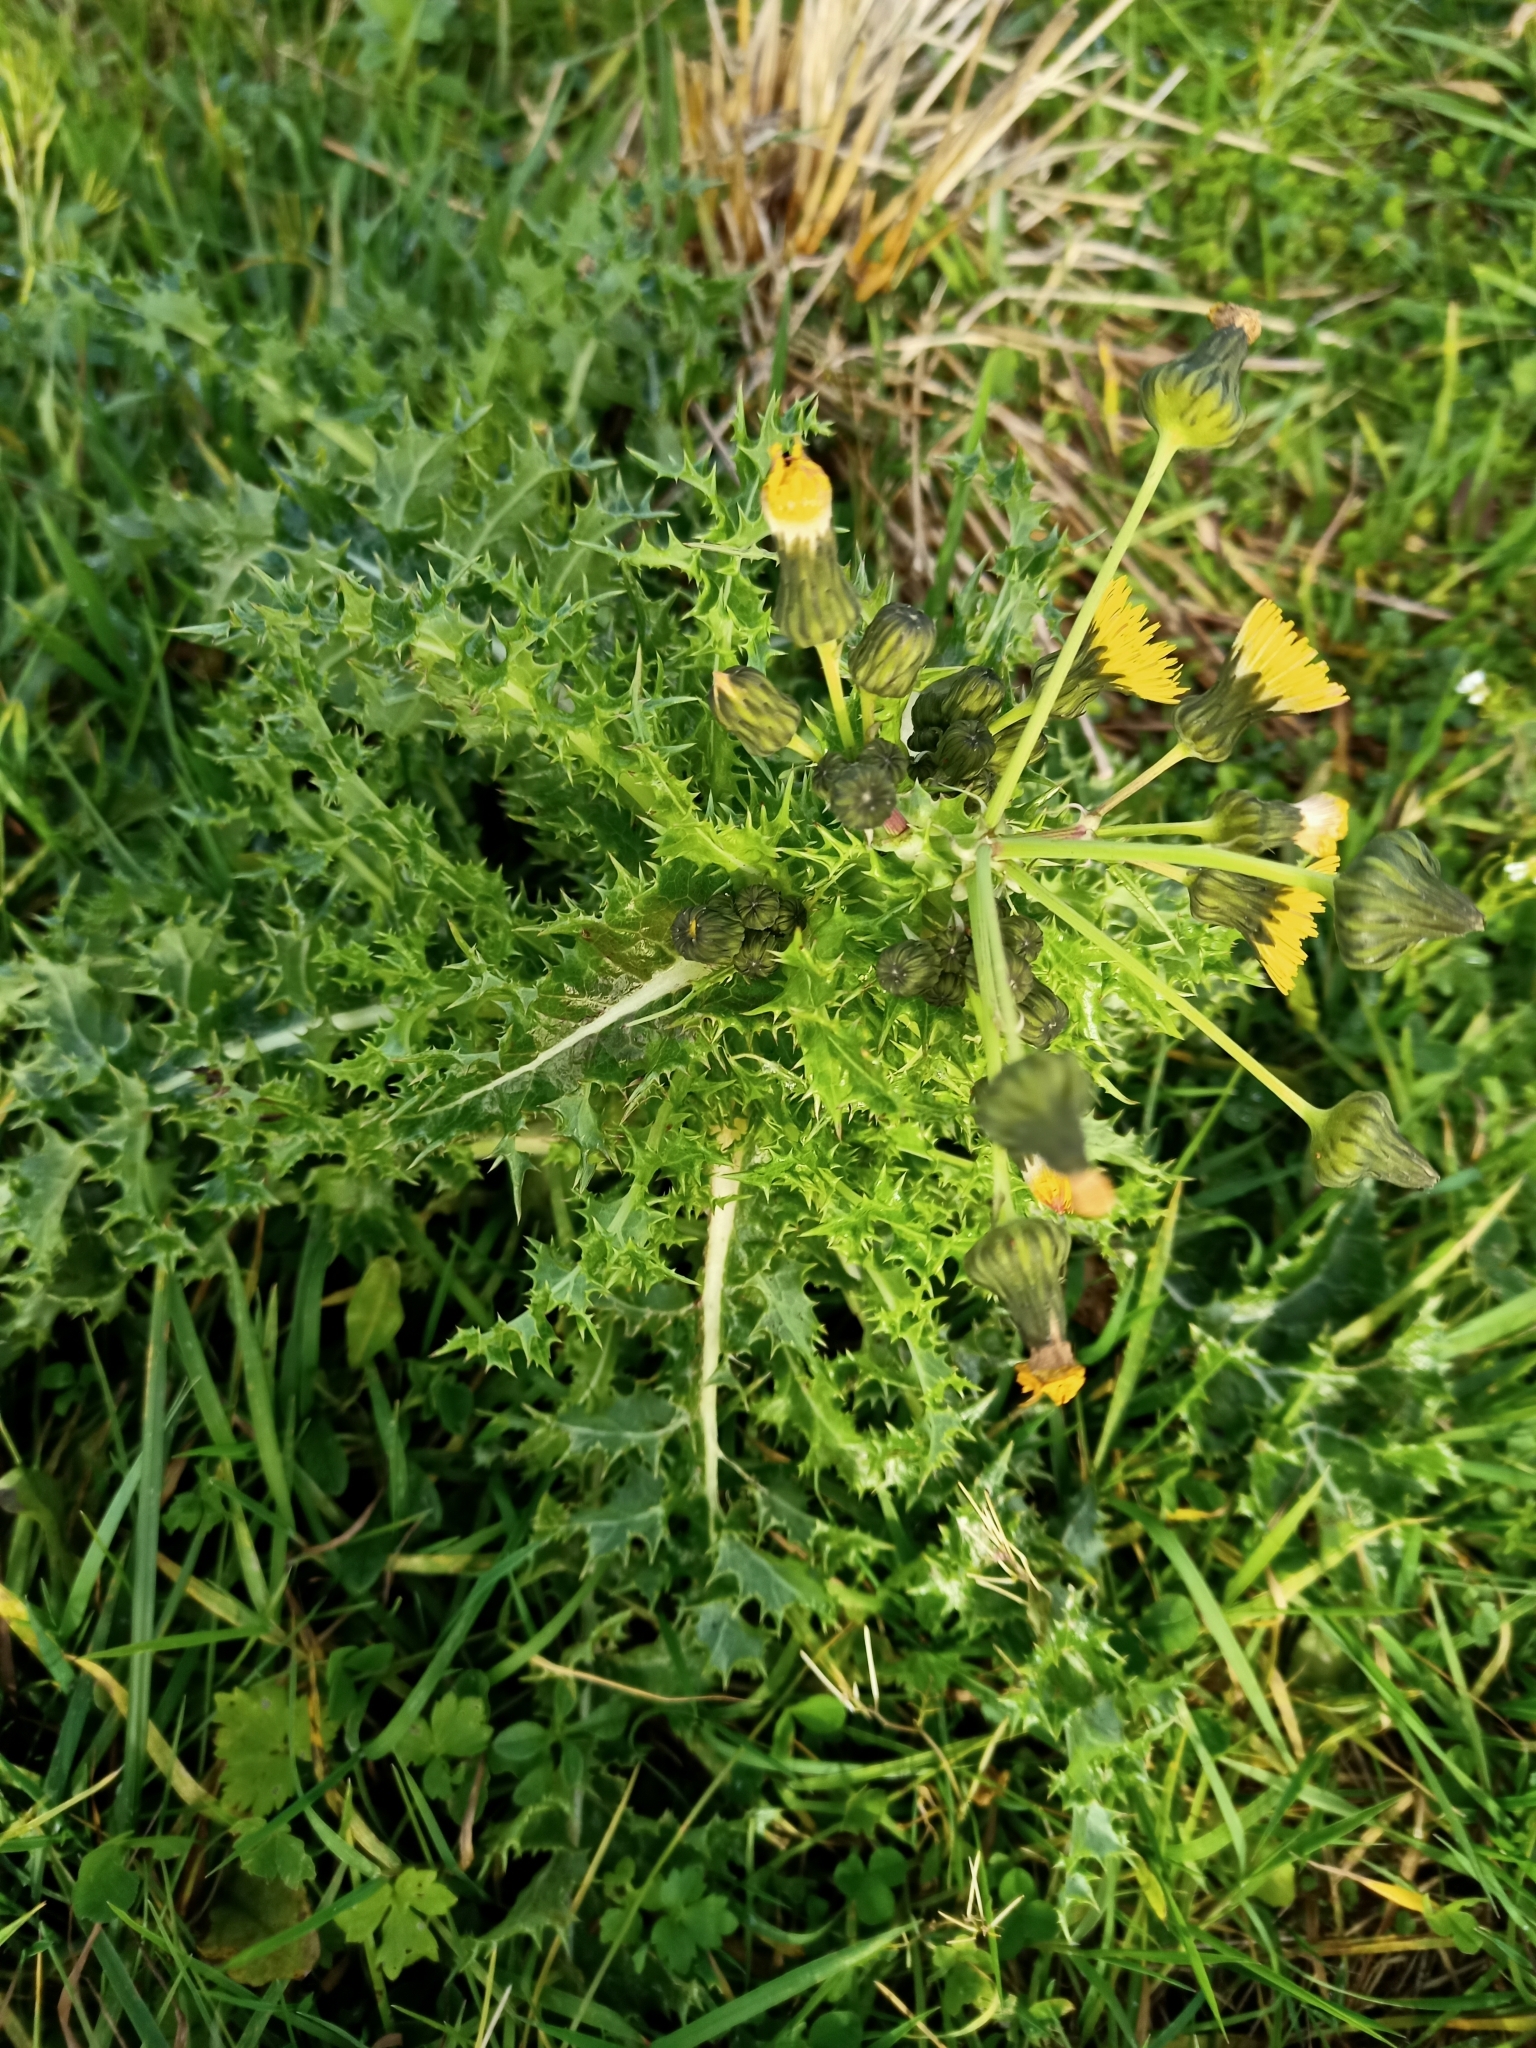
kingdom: Plantae
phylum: Tracheophyta
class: Magnoliopsida
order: Asterales
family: Asteraceae
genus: Sonchus
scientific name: Sonchus asper
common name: Prickly sow-thistle
